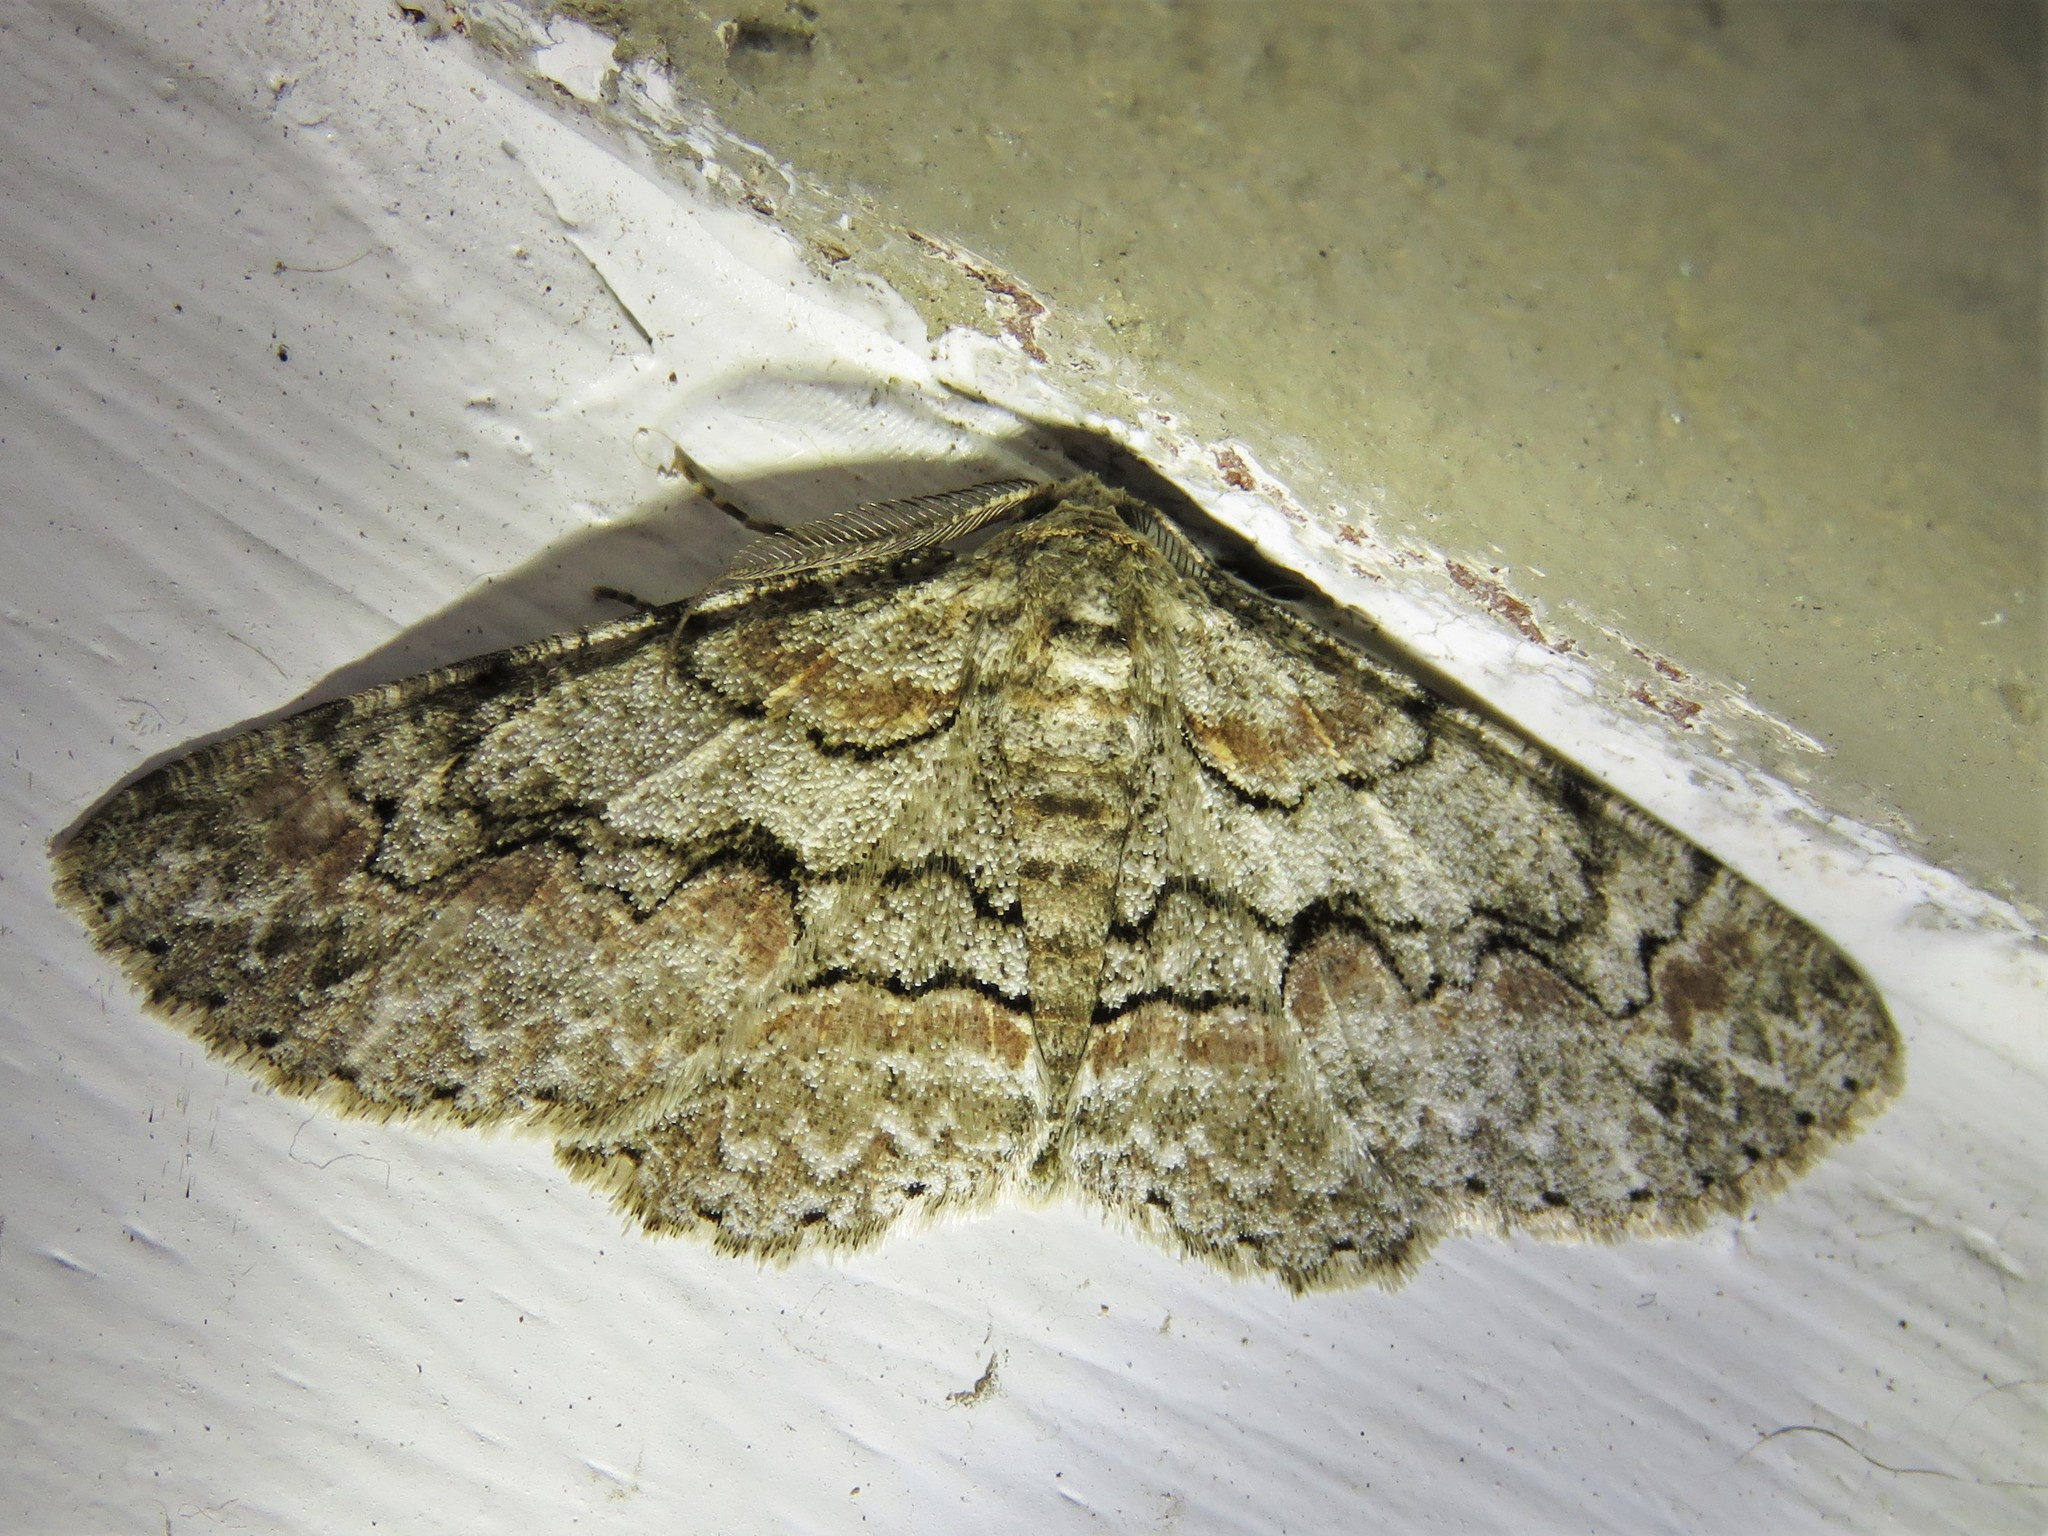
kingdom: Animalia
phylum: Arthropoda
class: Insecta
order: Lepidoptera
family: Geometridae
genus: Iridopsis
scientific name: Iridopsis defectaria
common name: Brown-shaded gray
